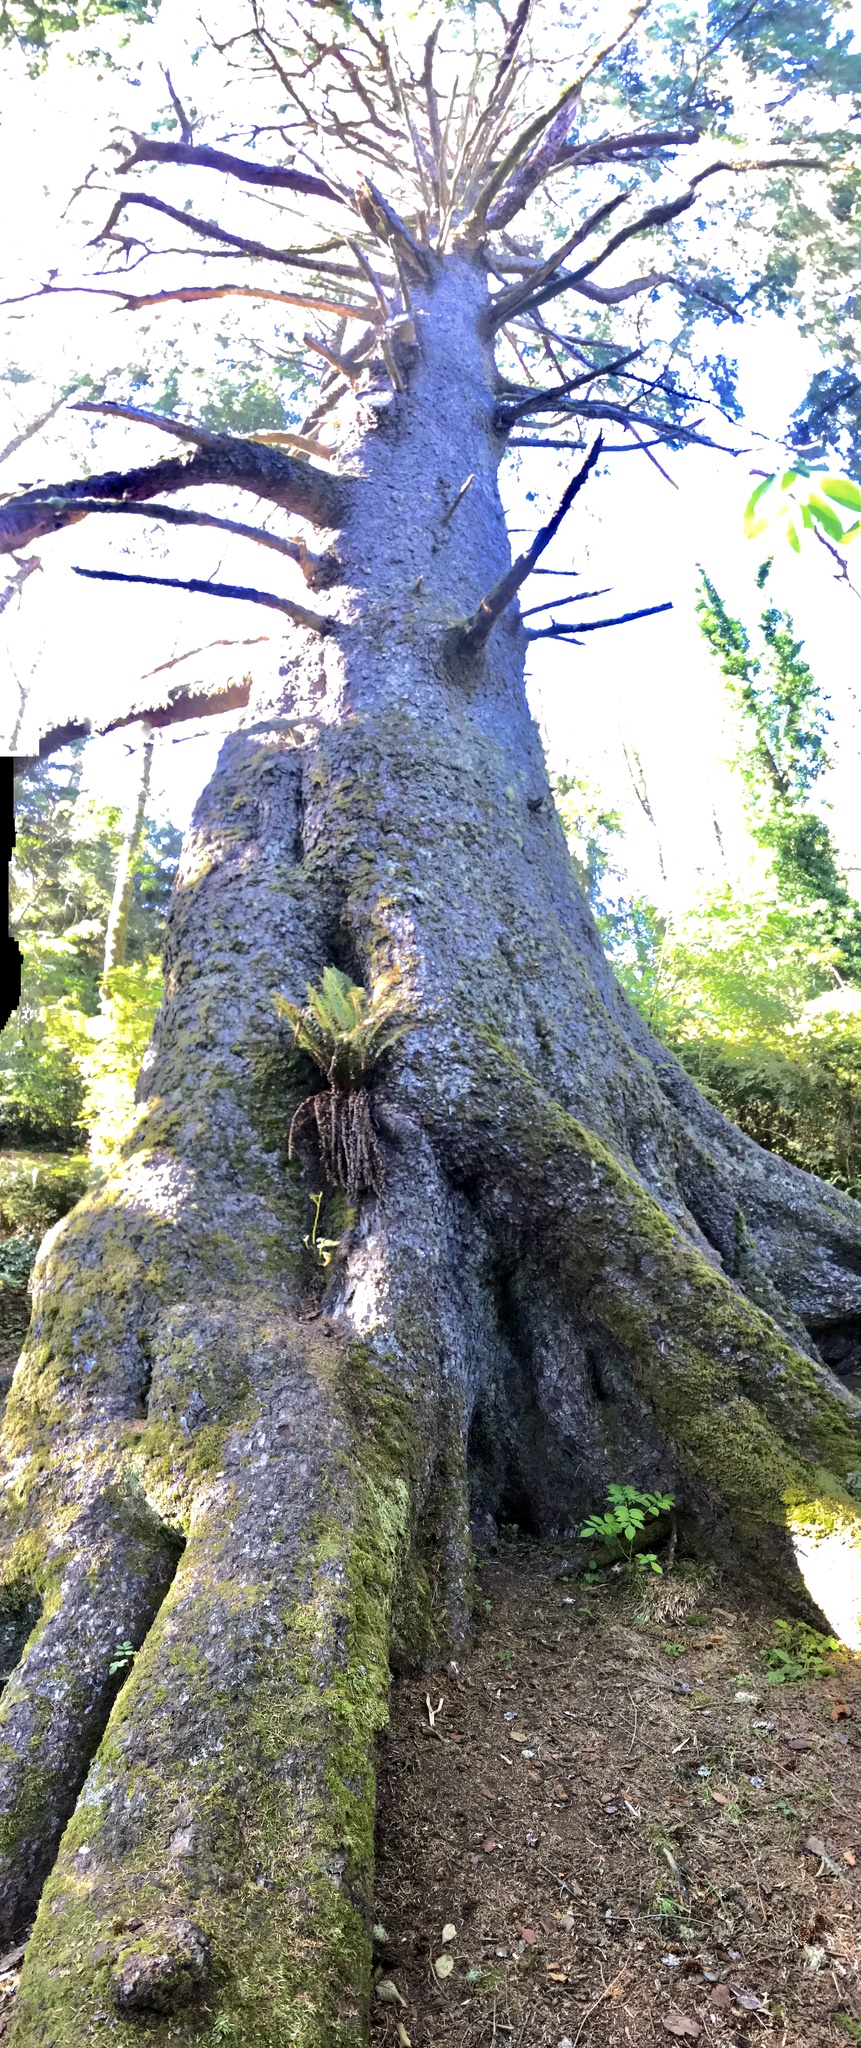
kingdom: Plantae
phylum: Tracheophyta
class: Pinopsida
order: Pinales
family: Pinaceae
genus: Picea
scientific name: Picea sitchensis
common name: Sitka spruce
